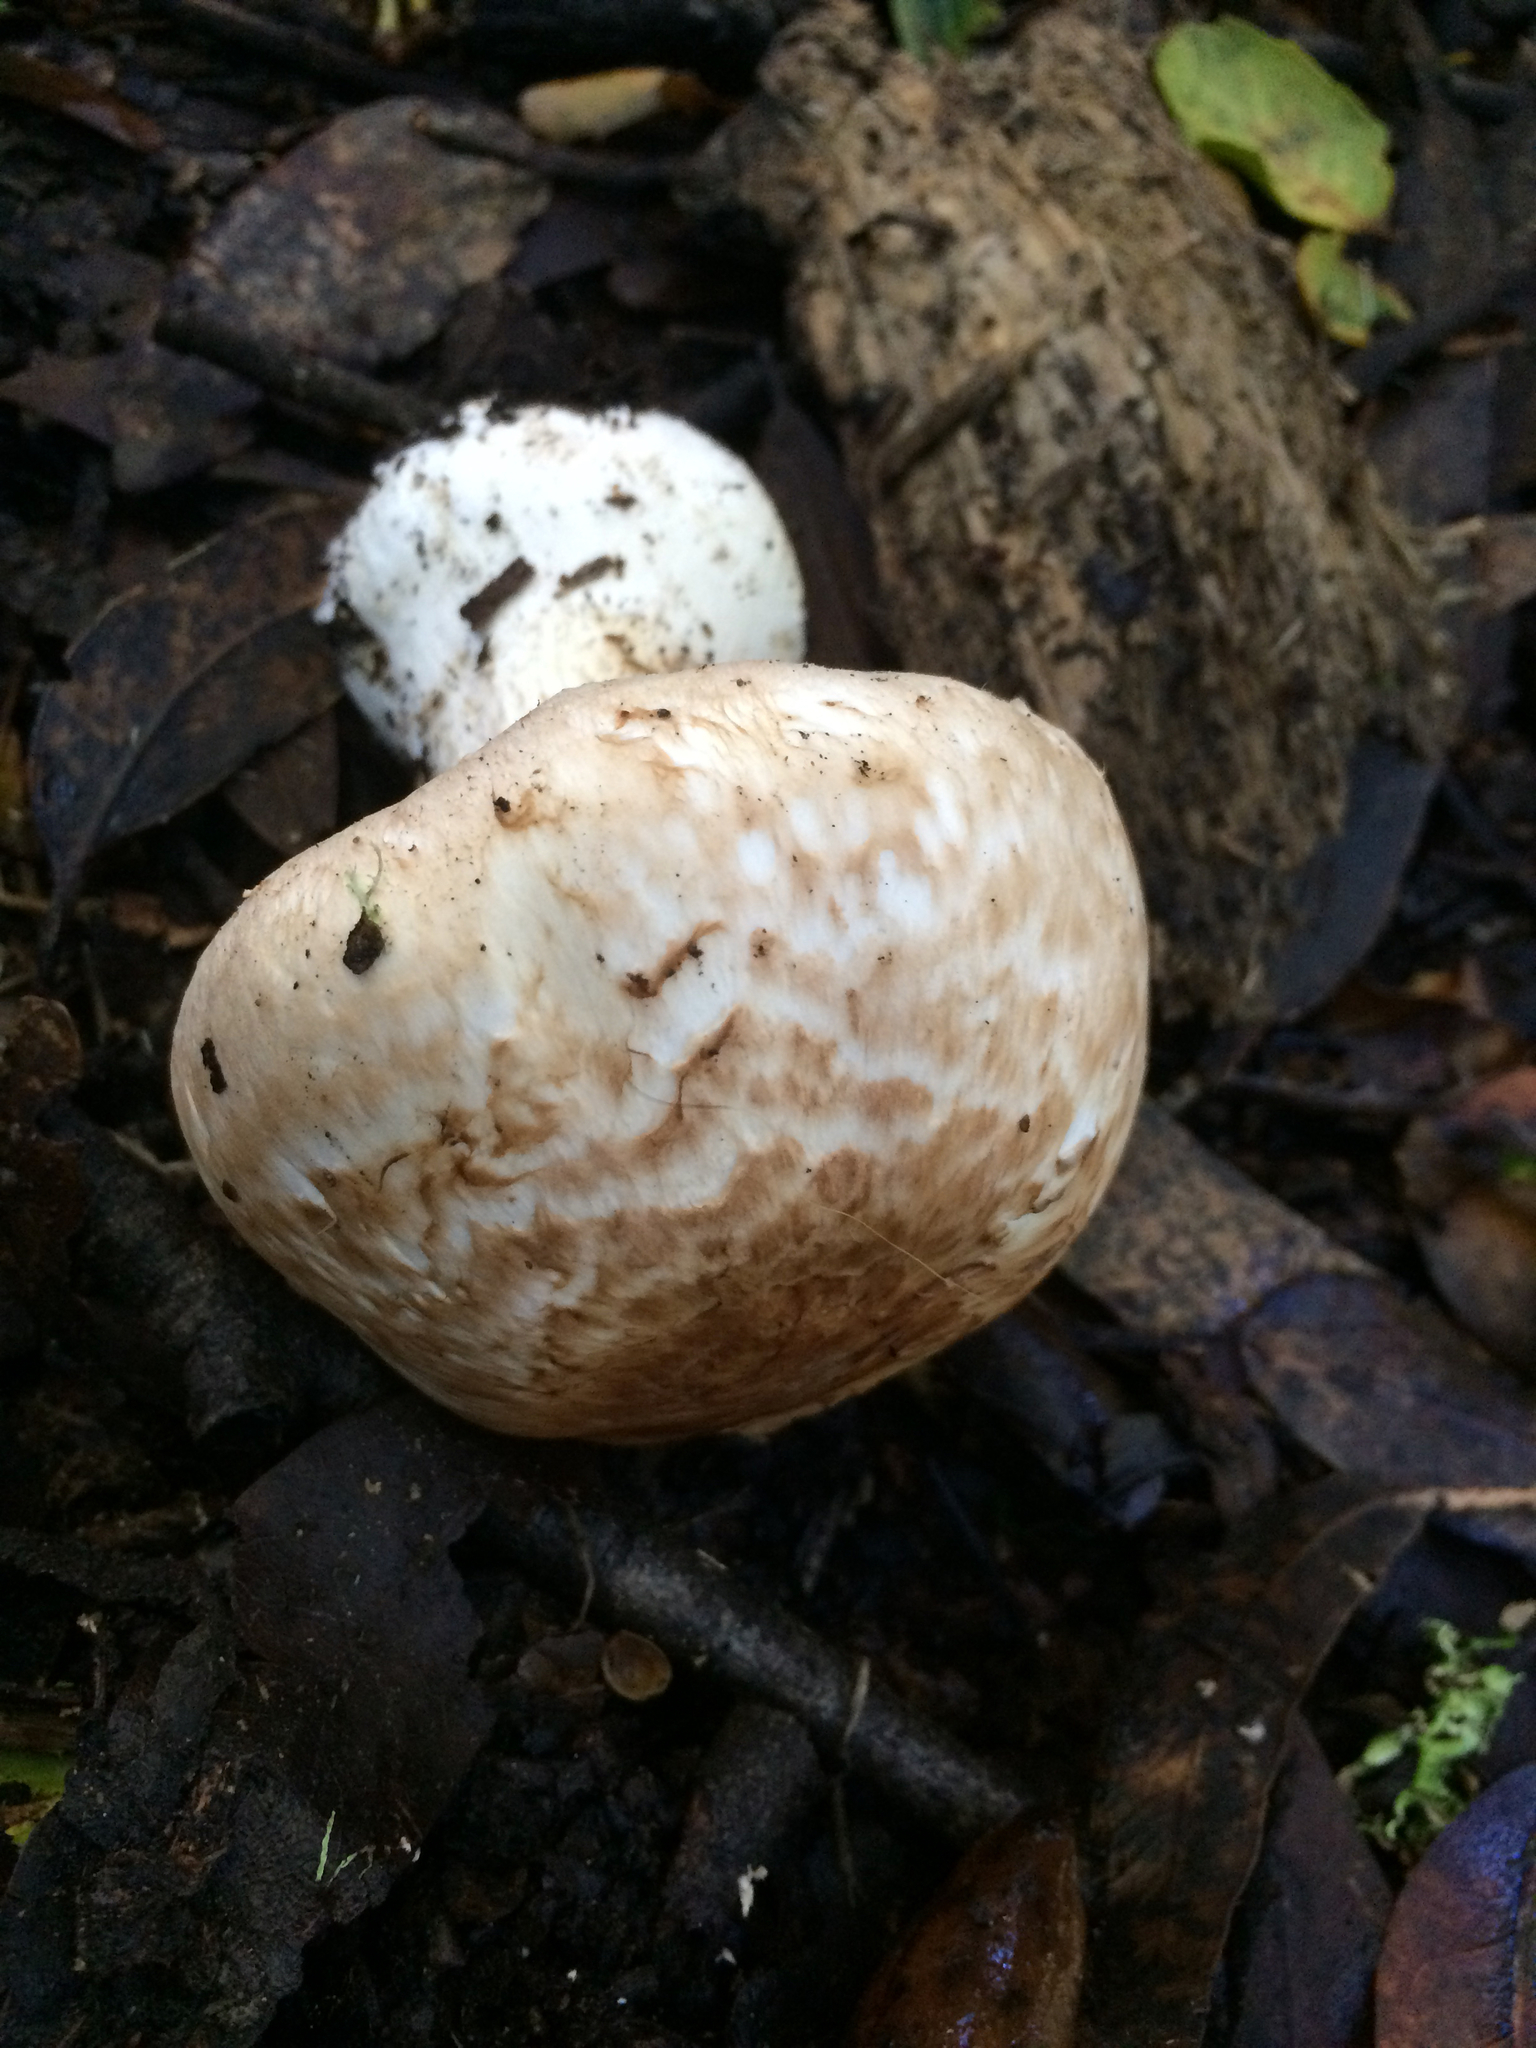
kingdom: Fungi
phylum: Basidiomycota
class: Agaricomycetes
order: Agaricales
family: Agaricaceae
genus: Agaricus
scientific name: Agaricus hondensis
